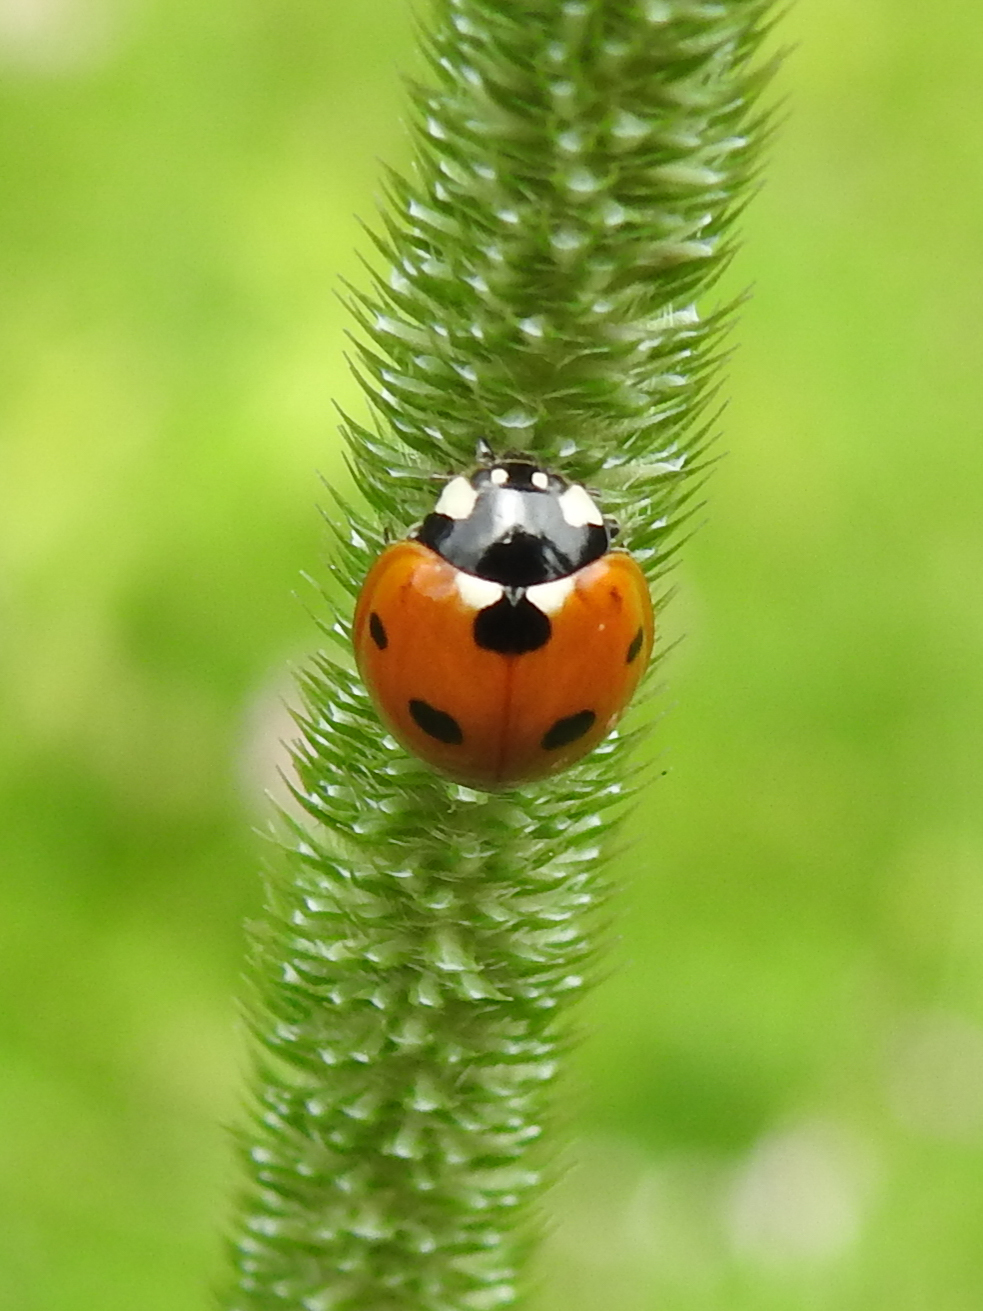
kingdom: Animalia
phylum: Arthropoda
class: Insecta
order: Coleoptera
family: Coccinellidae
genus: Coccinella
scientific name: Coccinella septempunctata
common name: Sevenspotted lady beetle
